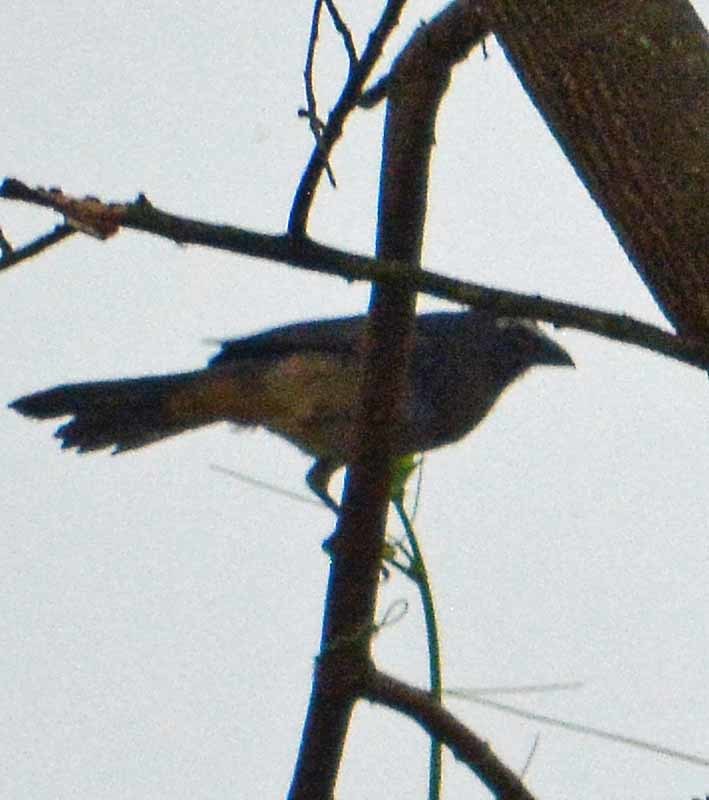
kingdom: Animalia
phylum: Chordata
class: Aves
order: Passeriformes
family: Thraupidae
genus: Saltator
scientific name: Saltator grandis
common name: Cinnamon-bellied saltator
